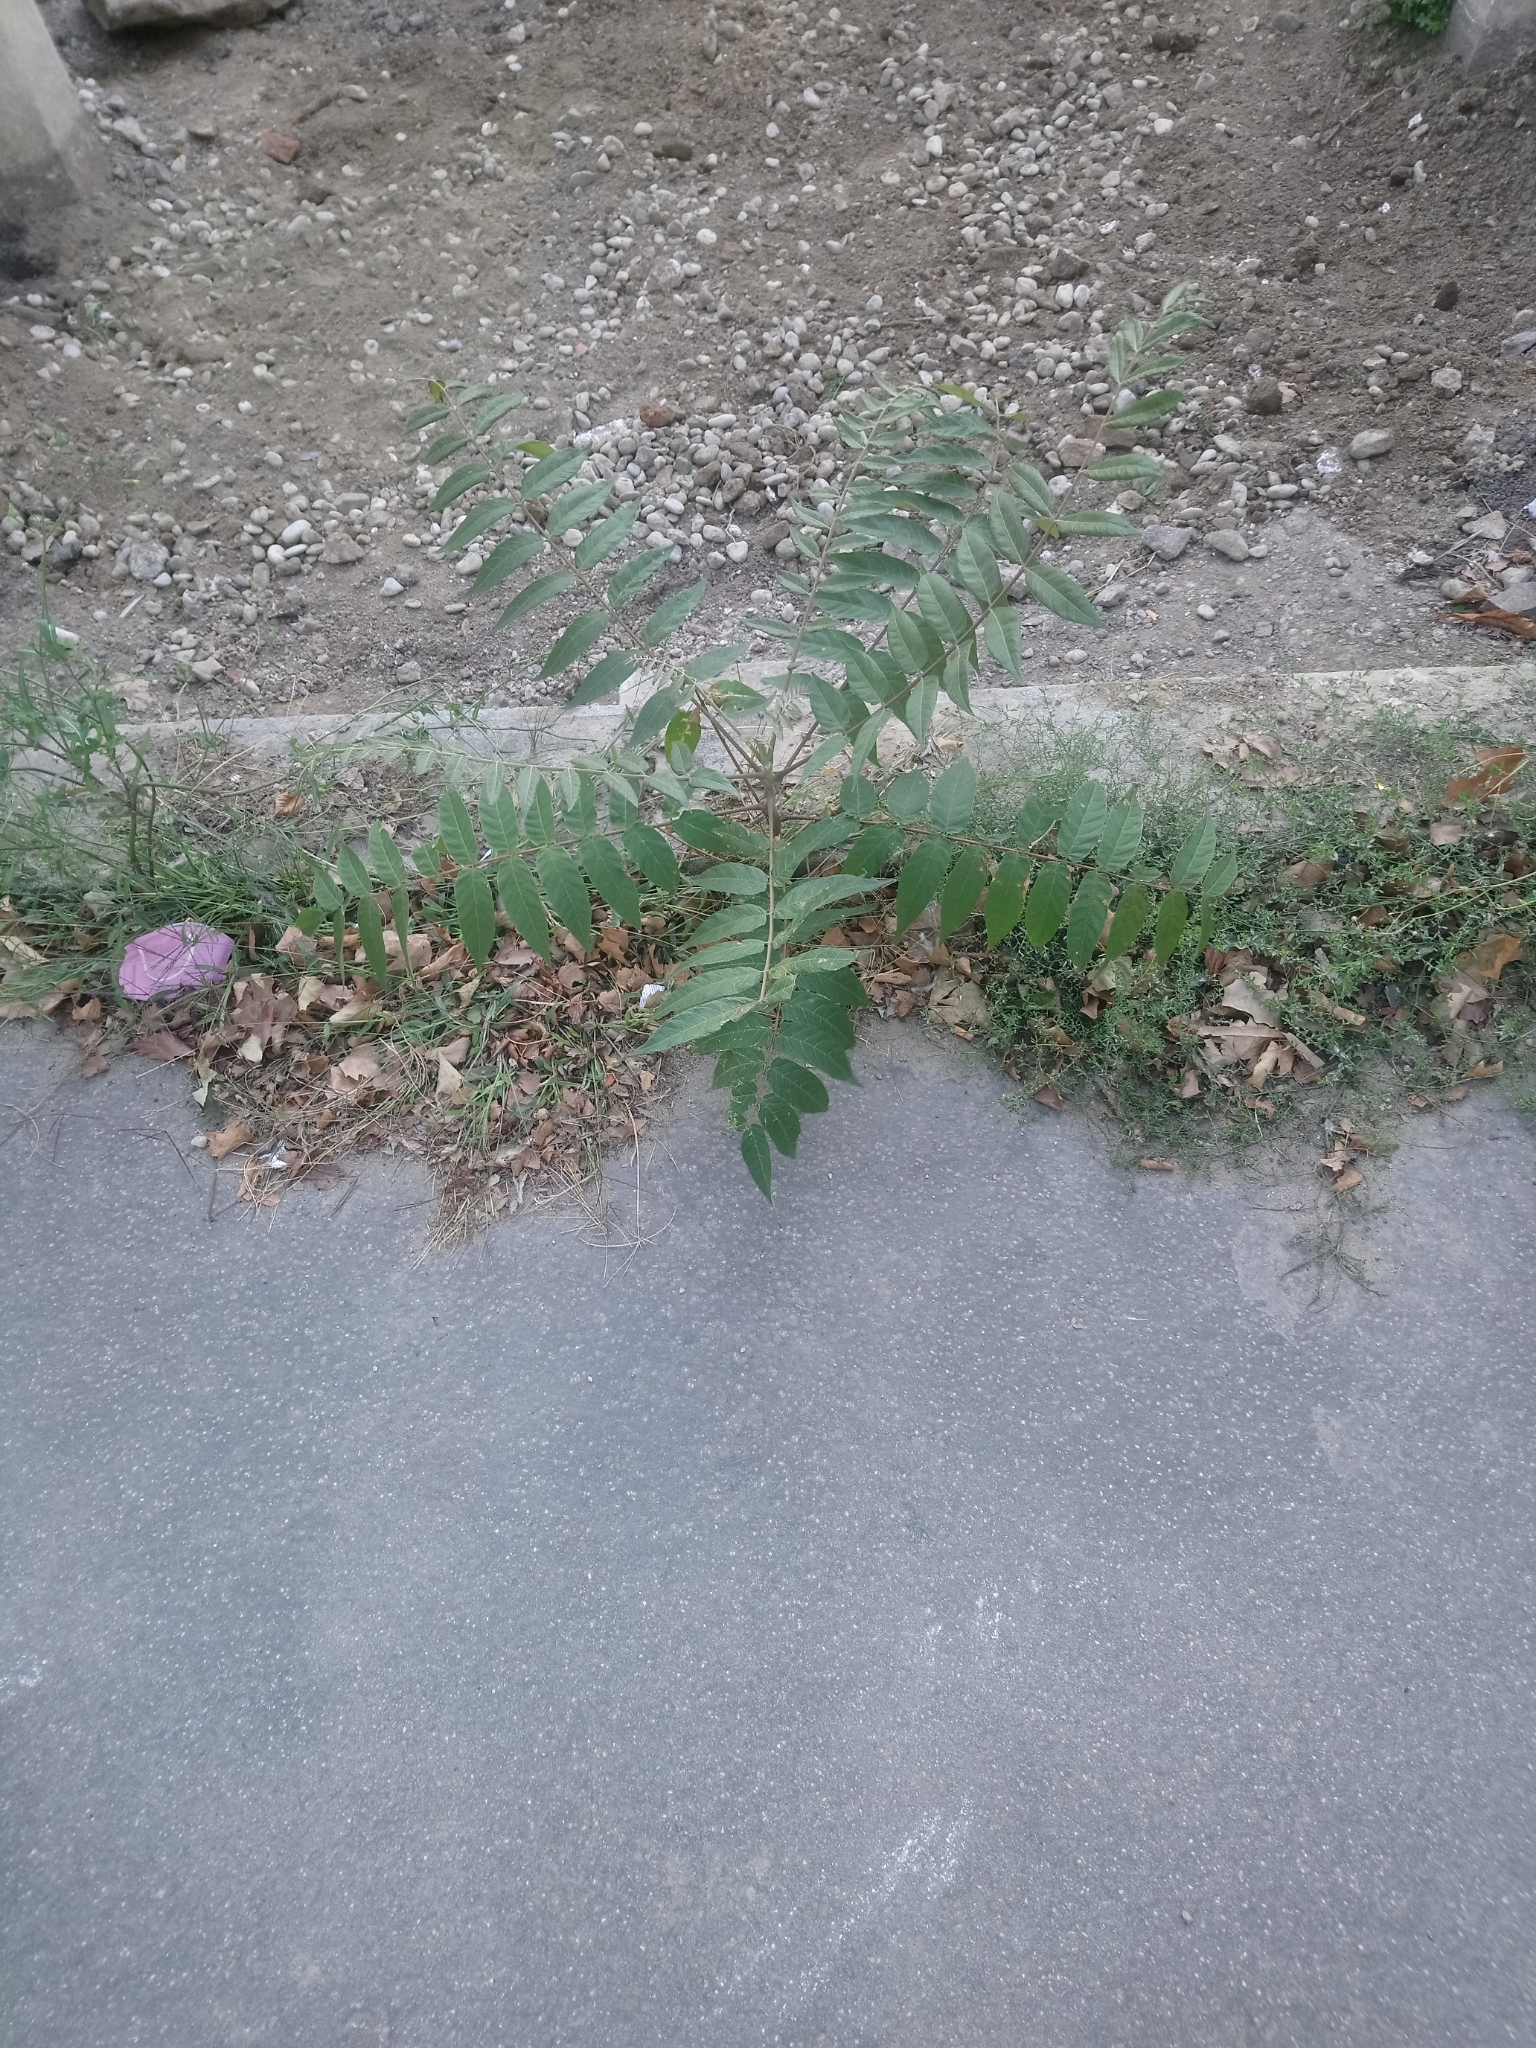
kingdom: Plantae
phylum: Tracheophyta
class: Magnoliopsida
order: Sapindales
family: Simaroubaceae
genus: Ailanthus
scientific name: Ailanthus altissima
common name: Tree-of-heaven
